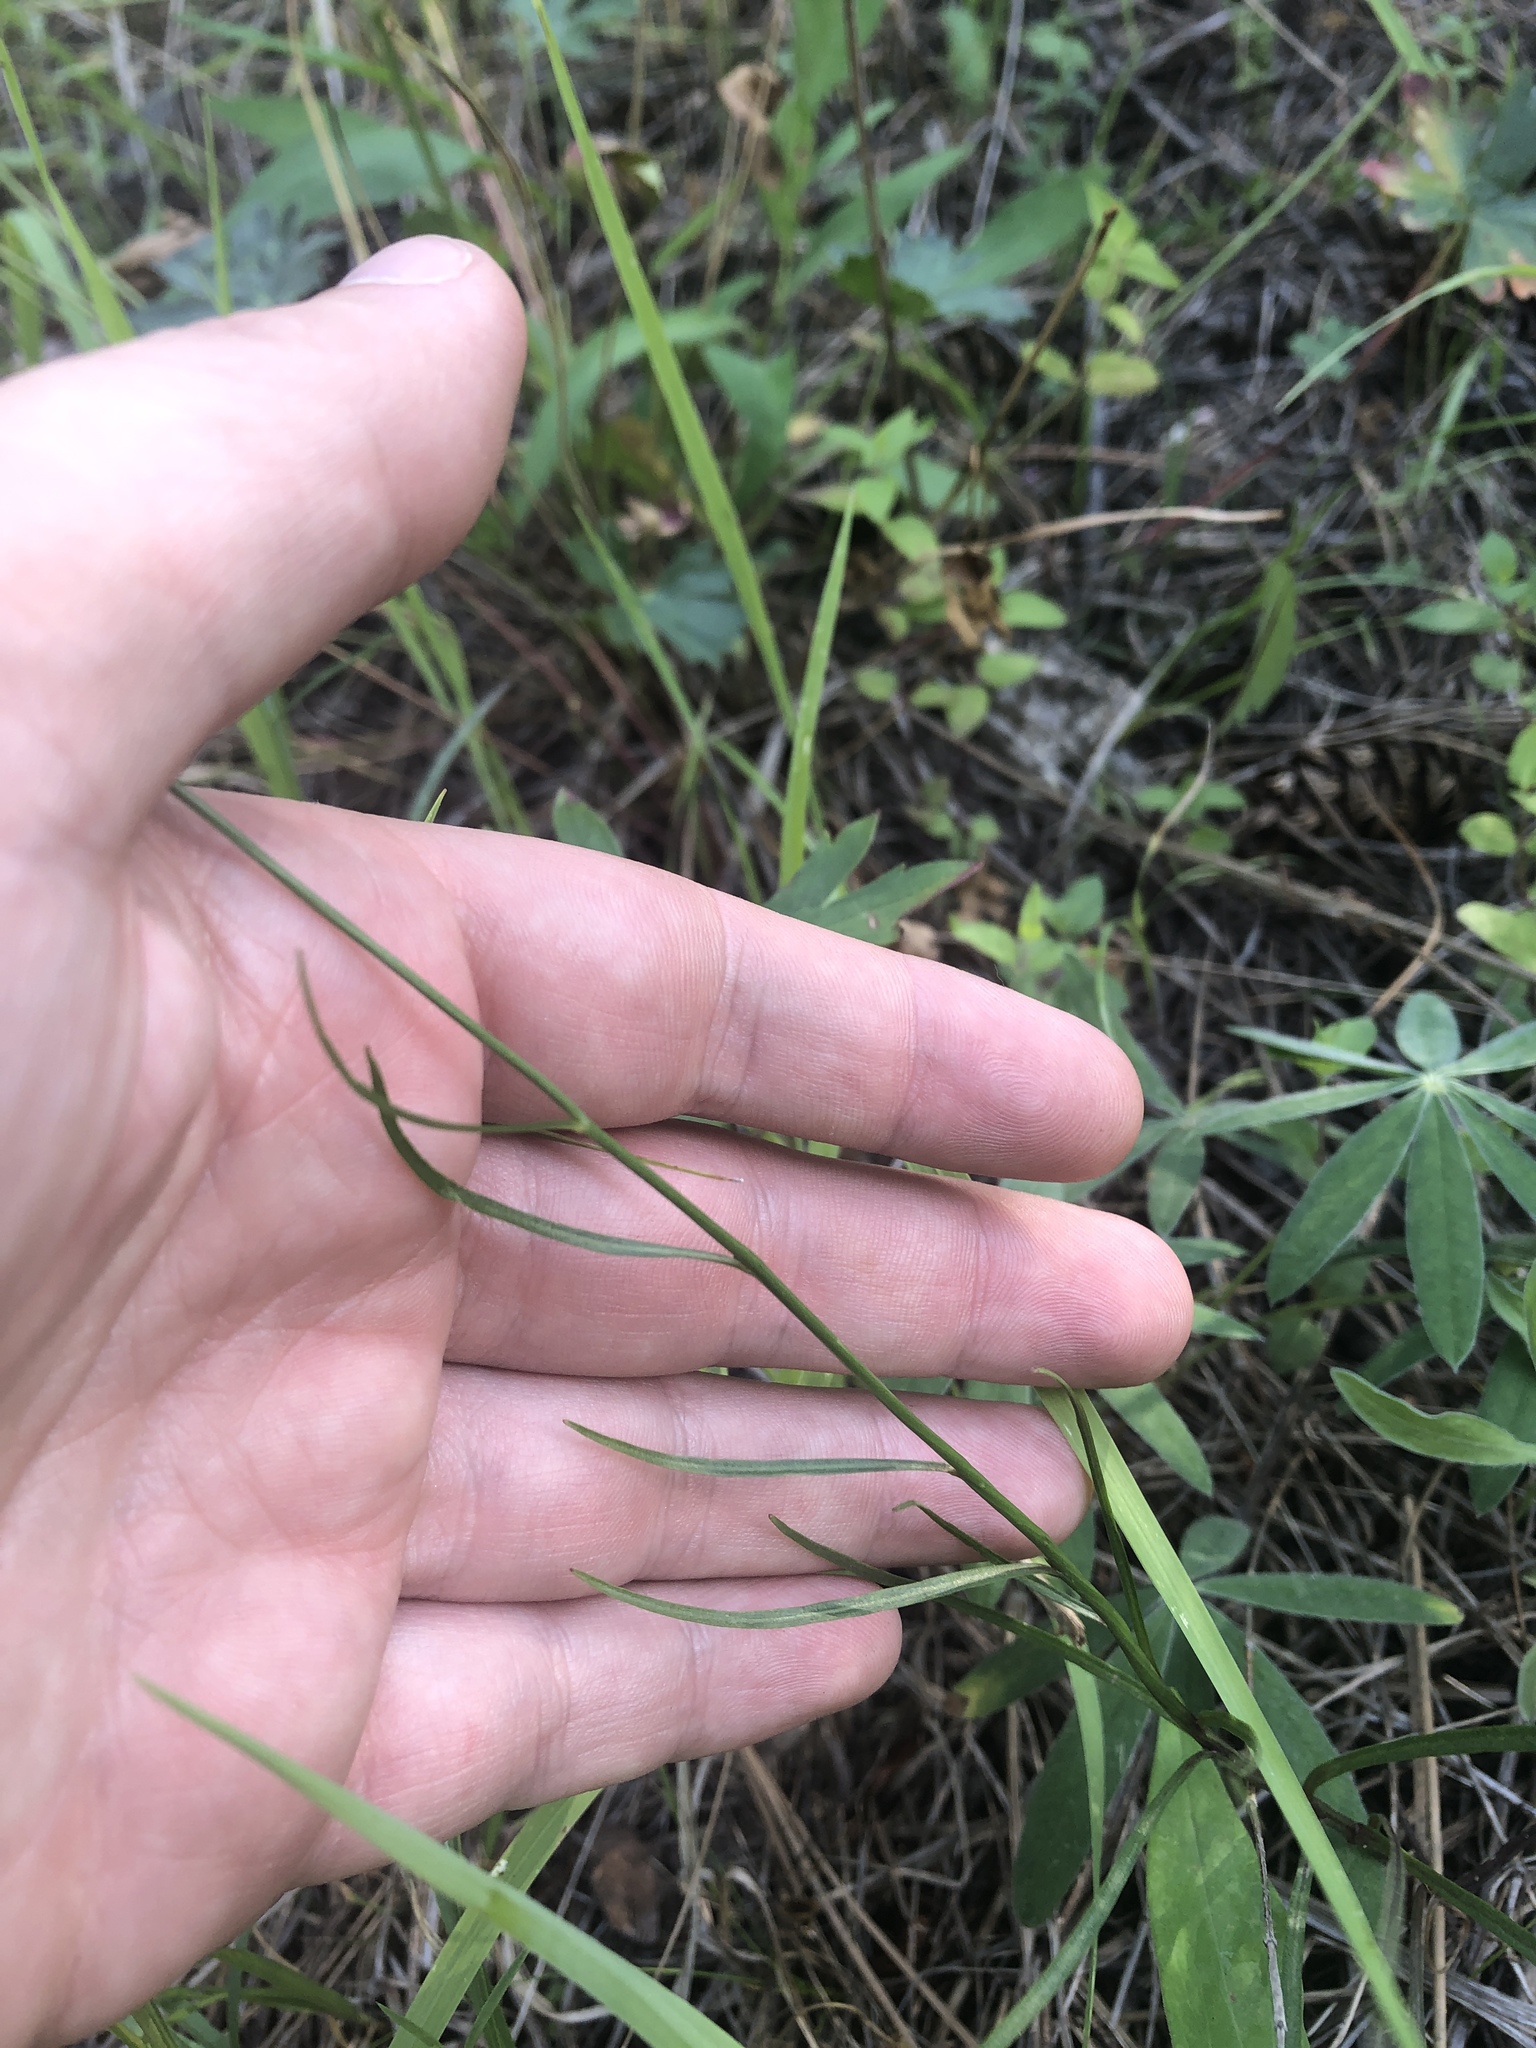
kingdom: Plantae
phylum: Tracheophyta
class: Magnoliopsida
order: Asterales
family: Campanulaceae
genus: Campanula
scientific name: Campanula petiolata
